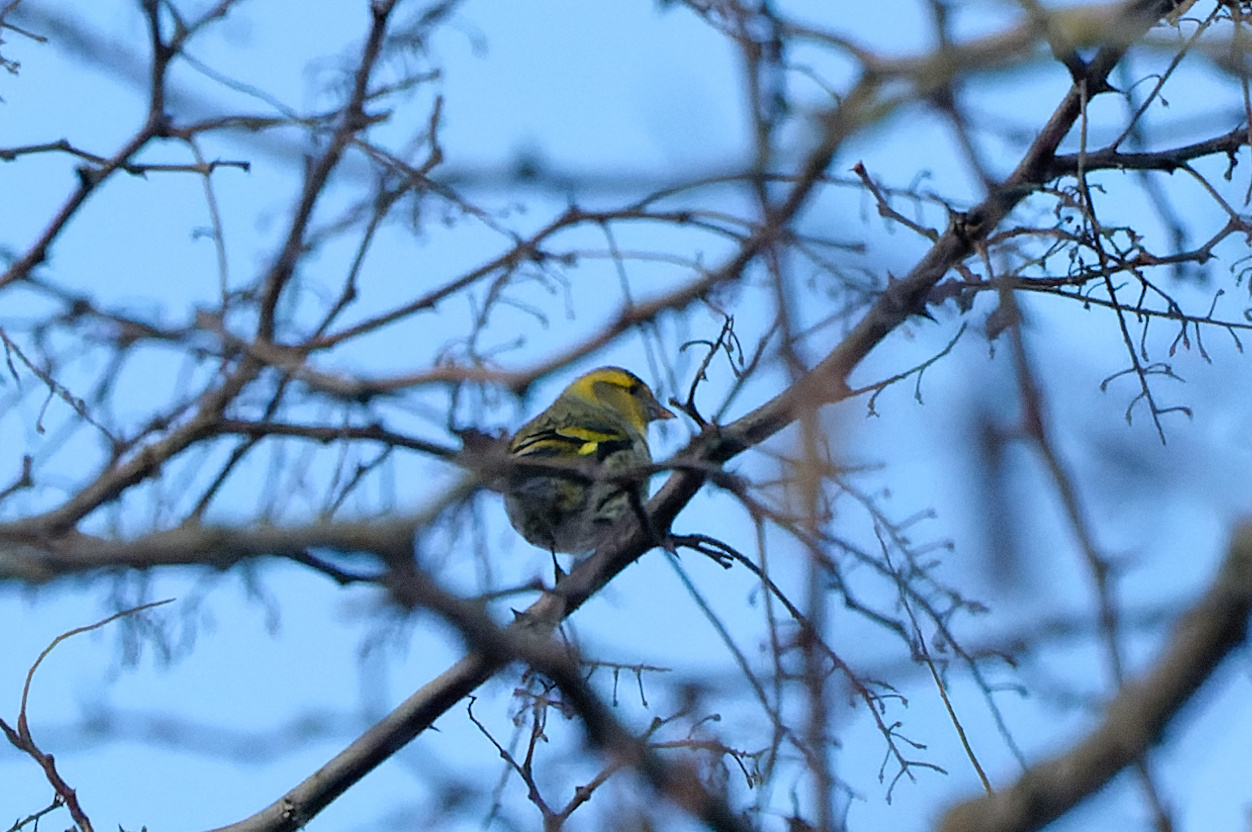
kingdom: Animalia
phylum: Chordata
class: Aves
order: Passeriformes
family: Fringillidae
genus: Spinus
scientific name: Spinus spinus
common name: Eurasian siskin
